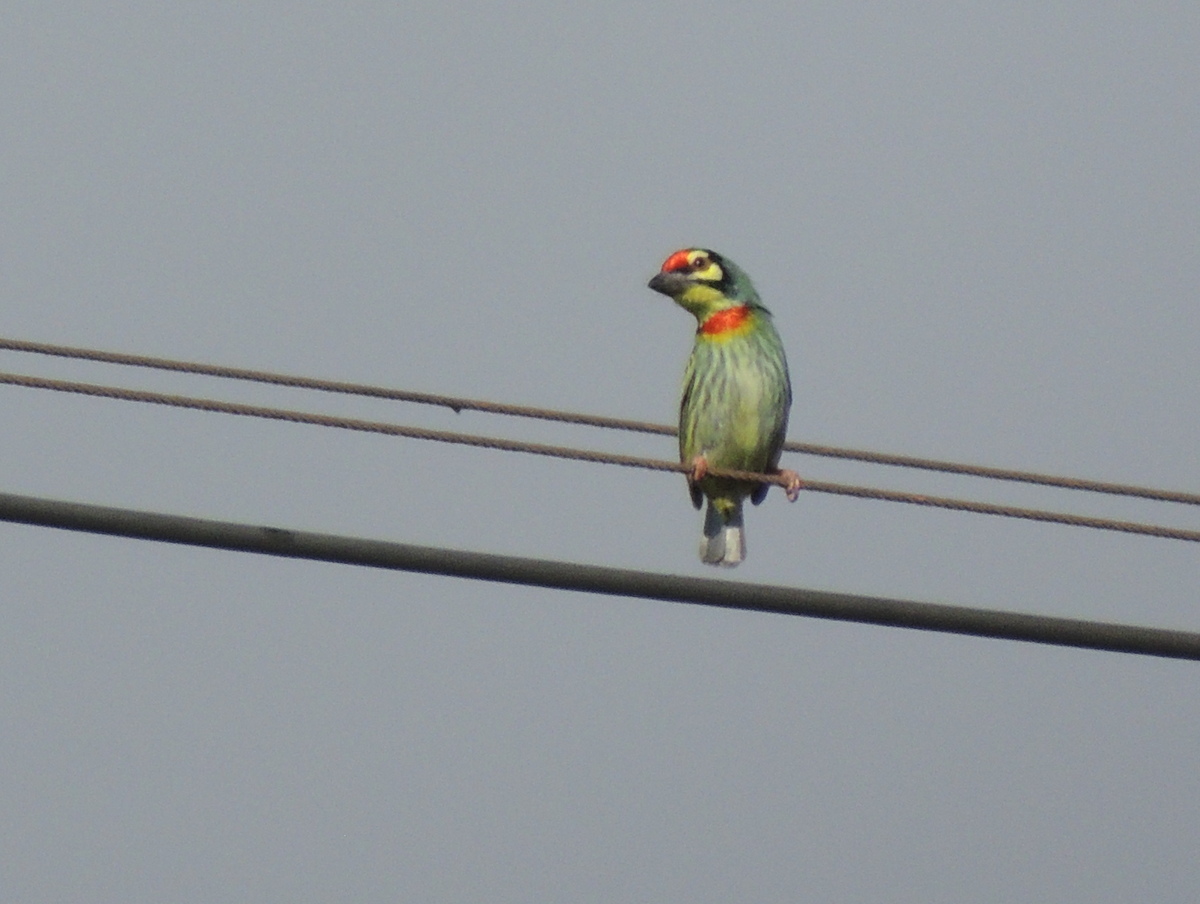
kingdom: Animalia
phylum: Chordata
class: Aves
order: Piciformes
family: Megalaimidae
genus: Psilopogon
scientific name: Psilopogon haemacephalus
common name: Coppersmith barbet
